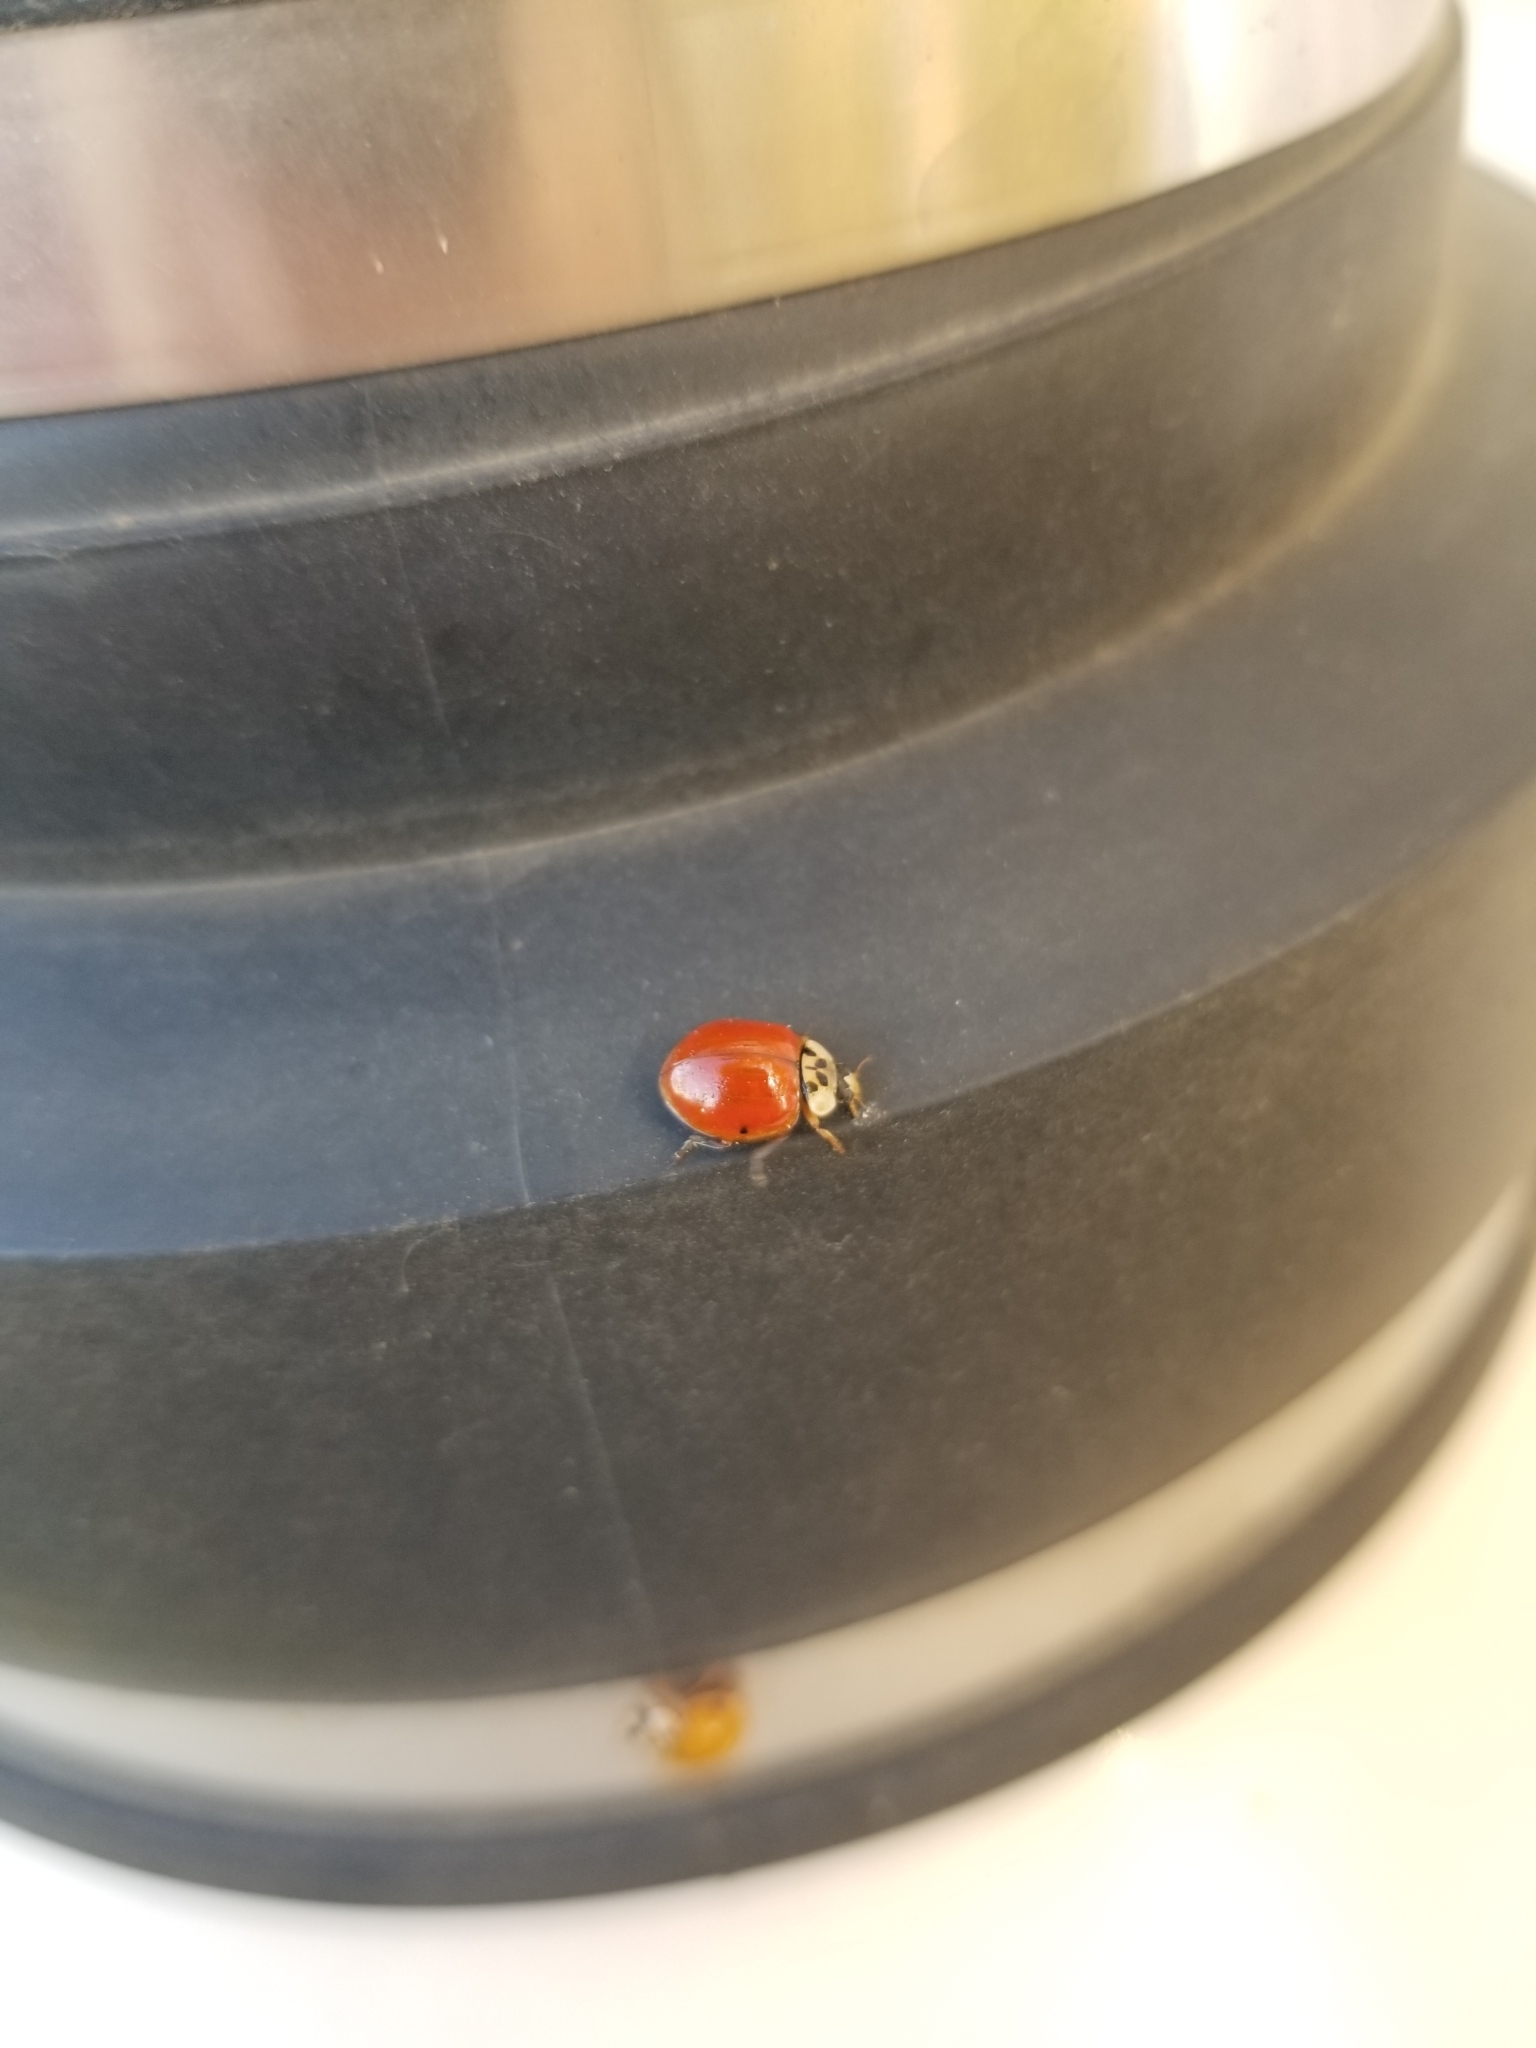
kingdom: Animalia
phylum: Arthropoda
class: Insecta
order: Coleoptera
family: Coccinellidae
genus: Harmonia
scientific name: Harmonia axyridis
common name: Harlequin ladybird
